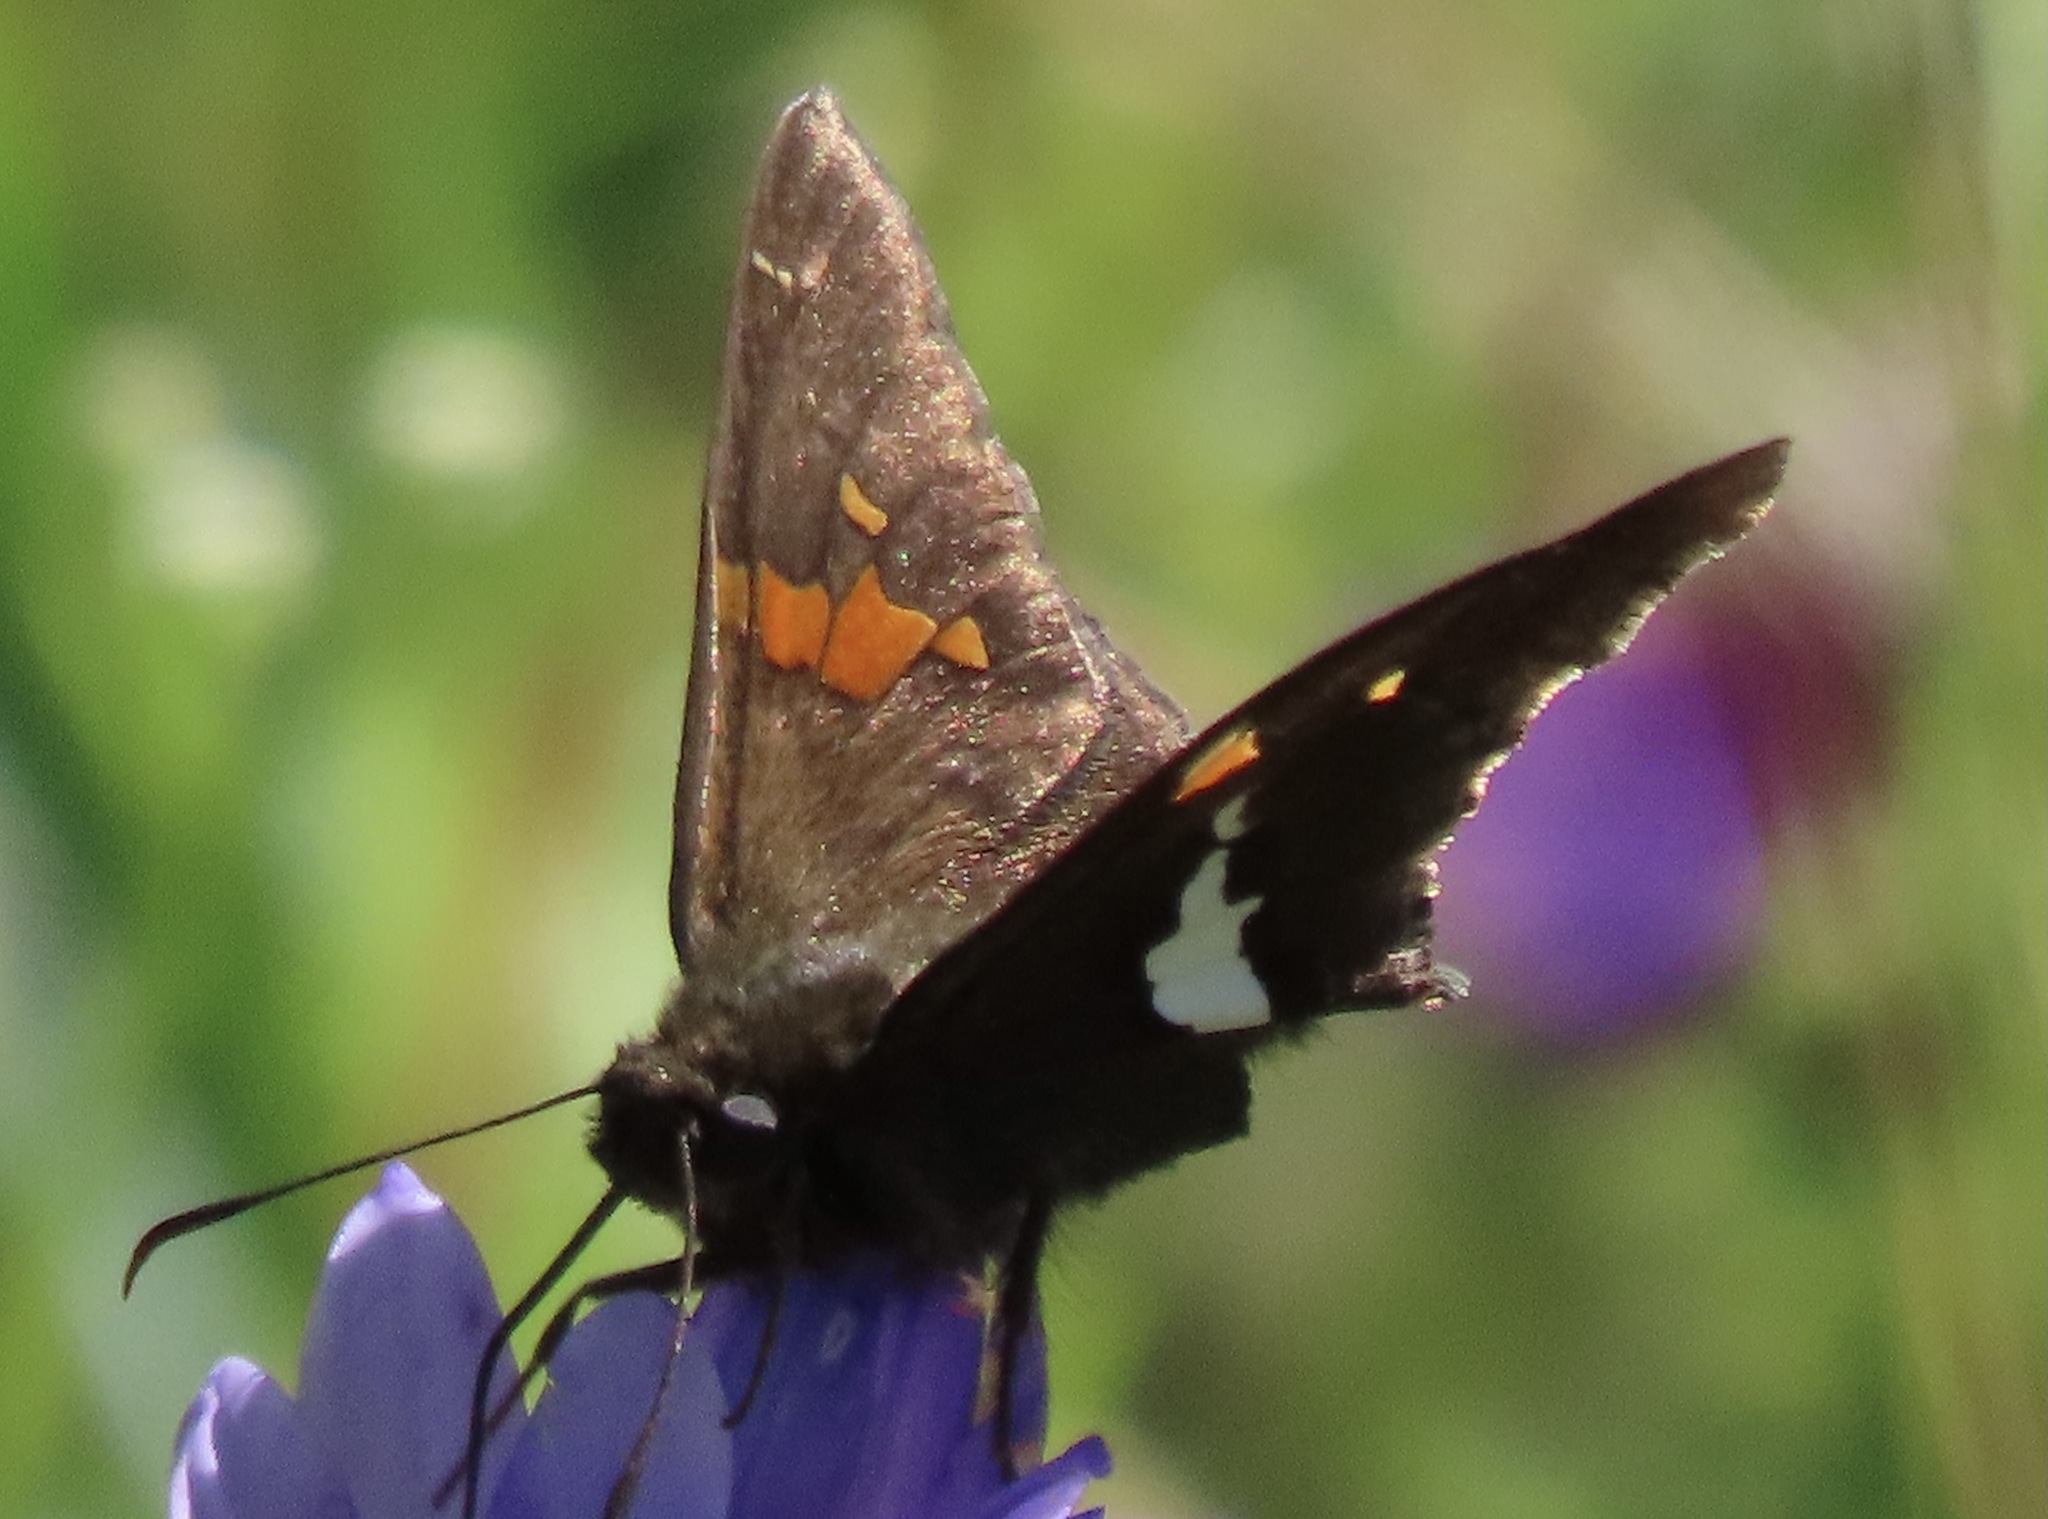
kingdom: Animalia
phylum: Arthropoda
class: Insecta
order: Lepidoptera
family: Hesperiidae
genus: Epargyreus
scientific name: Epargyreus clarus
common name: Silver-spotted skipper
